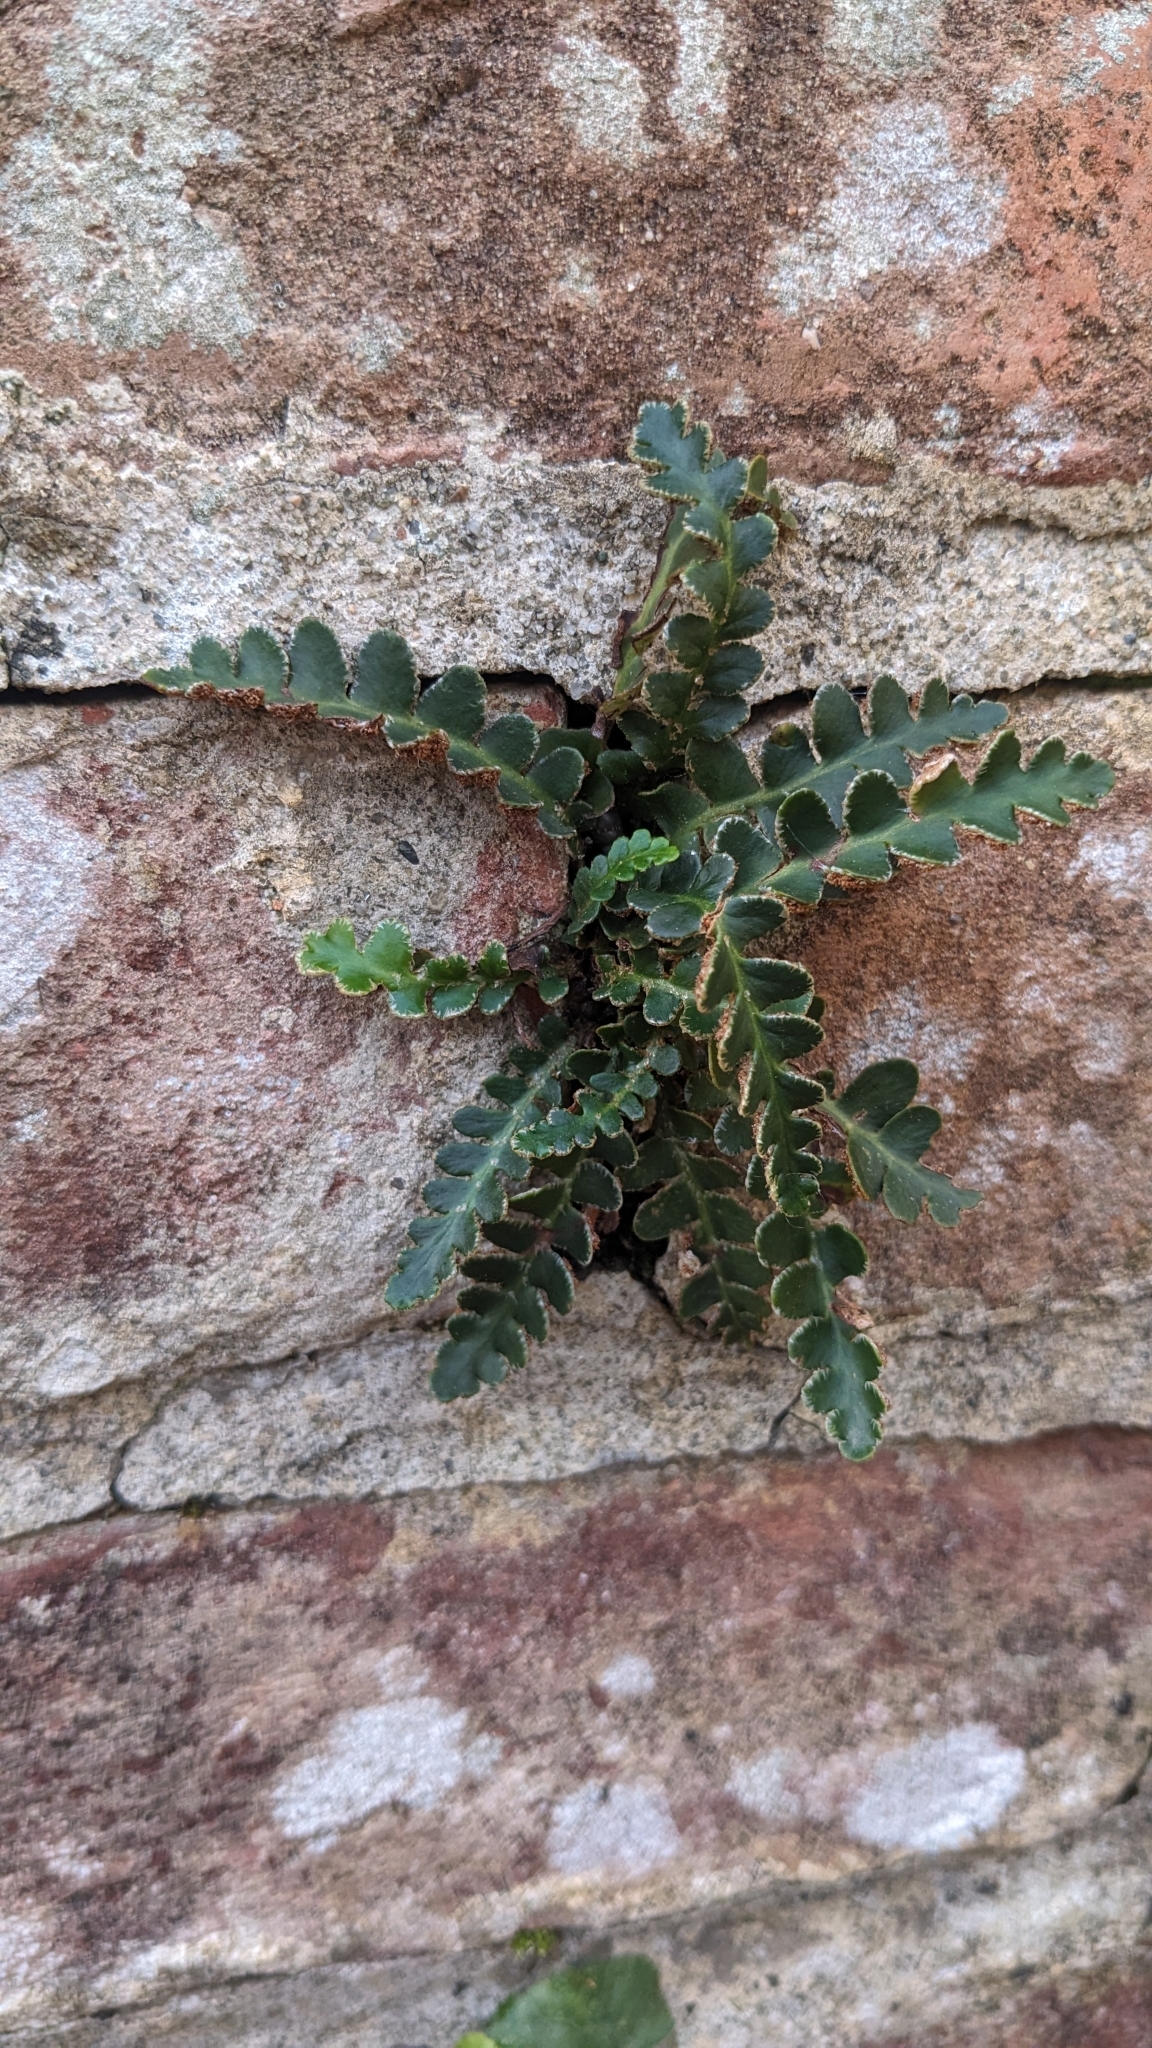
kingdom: Plantae
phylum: Tracheophyta
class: Polypodiopsida
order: Polypodiales
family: Aspleniaceae
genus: Asplenium
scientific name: Asplenium ceterach
